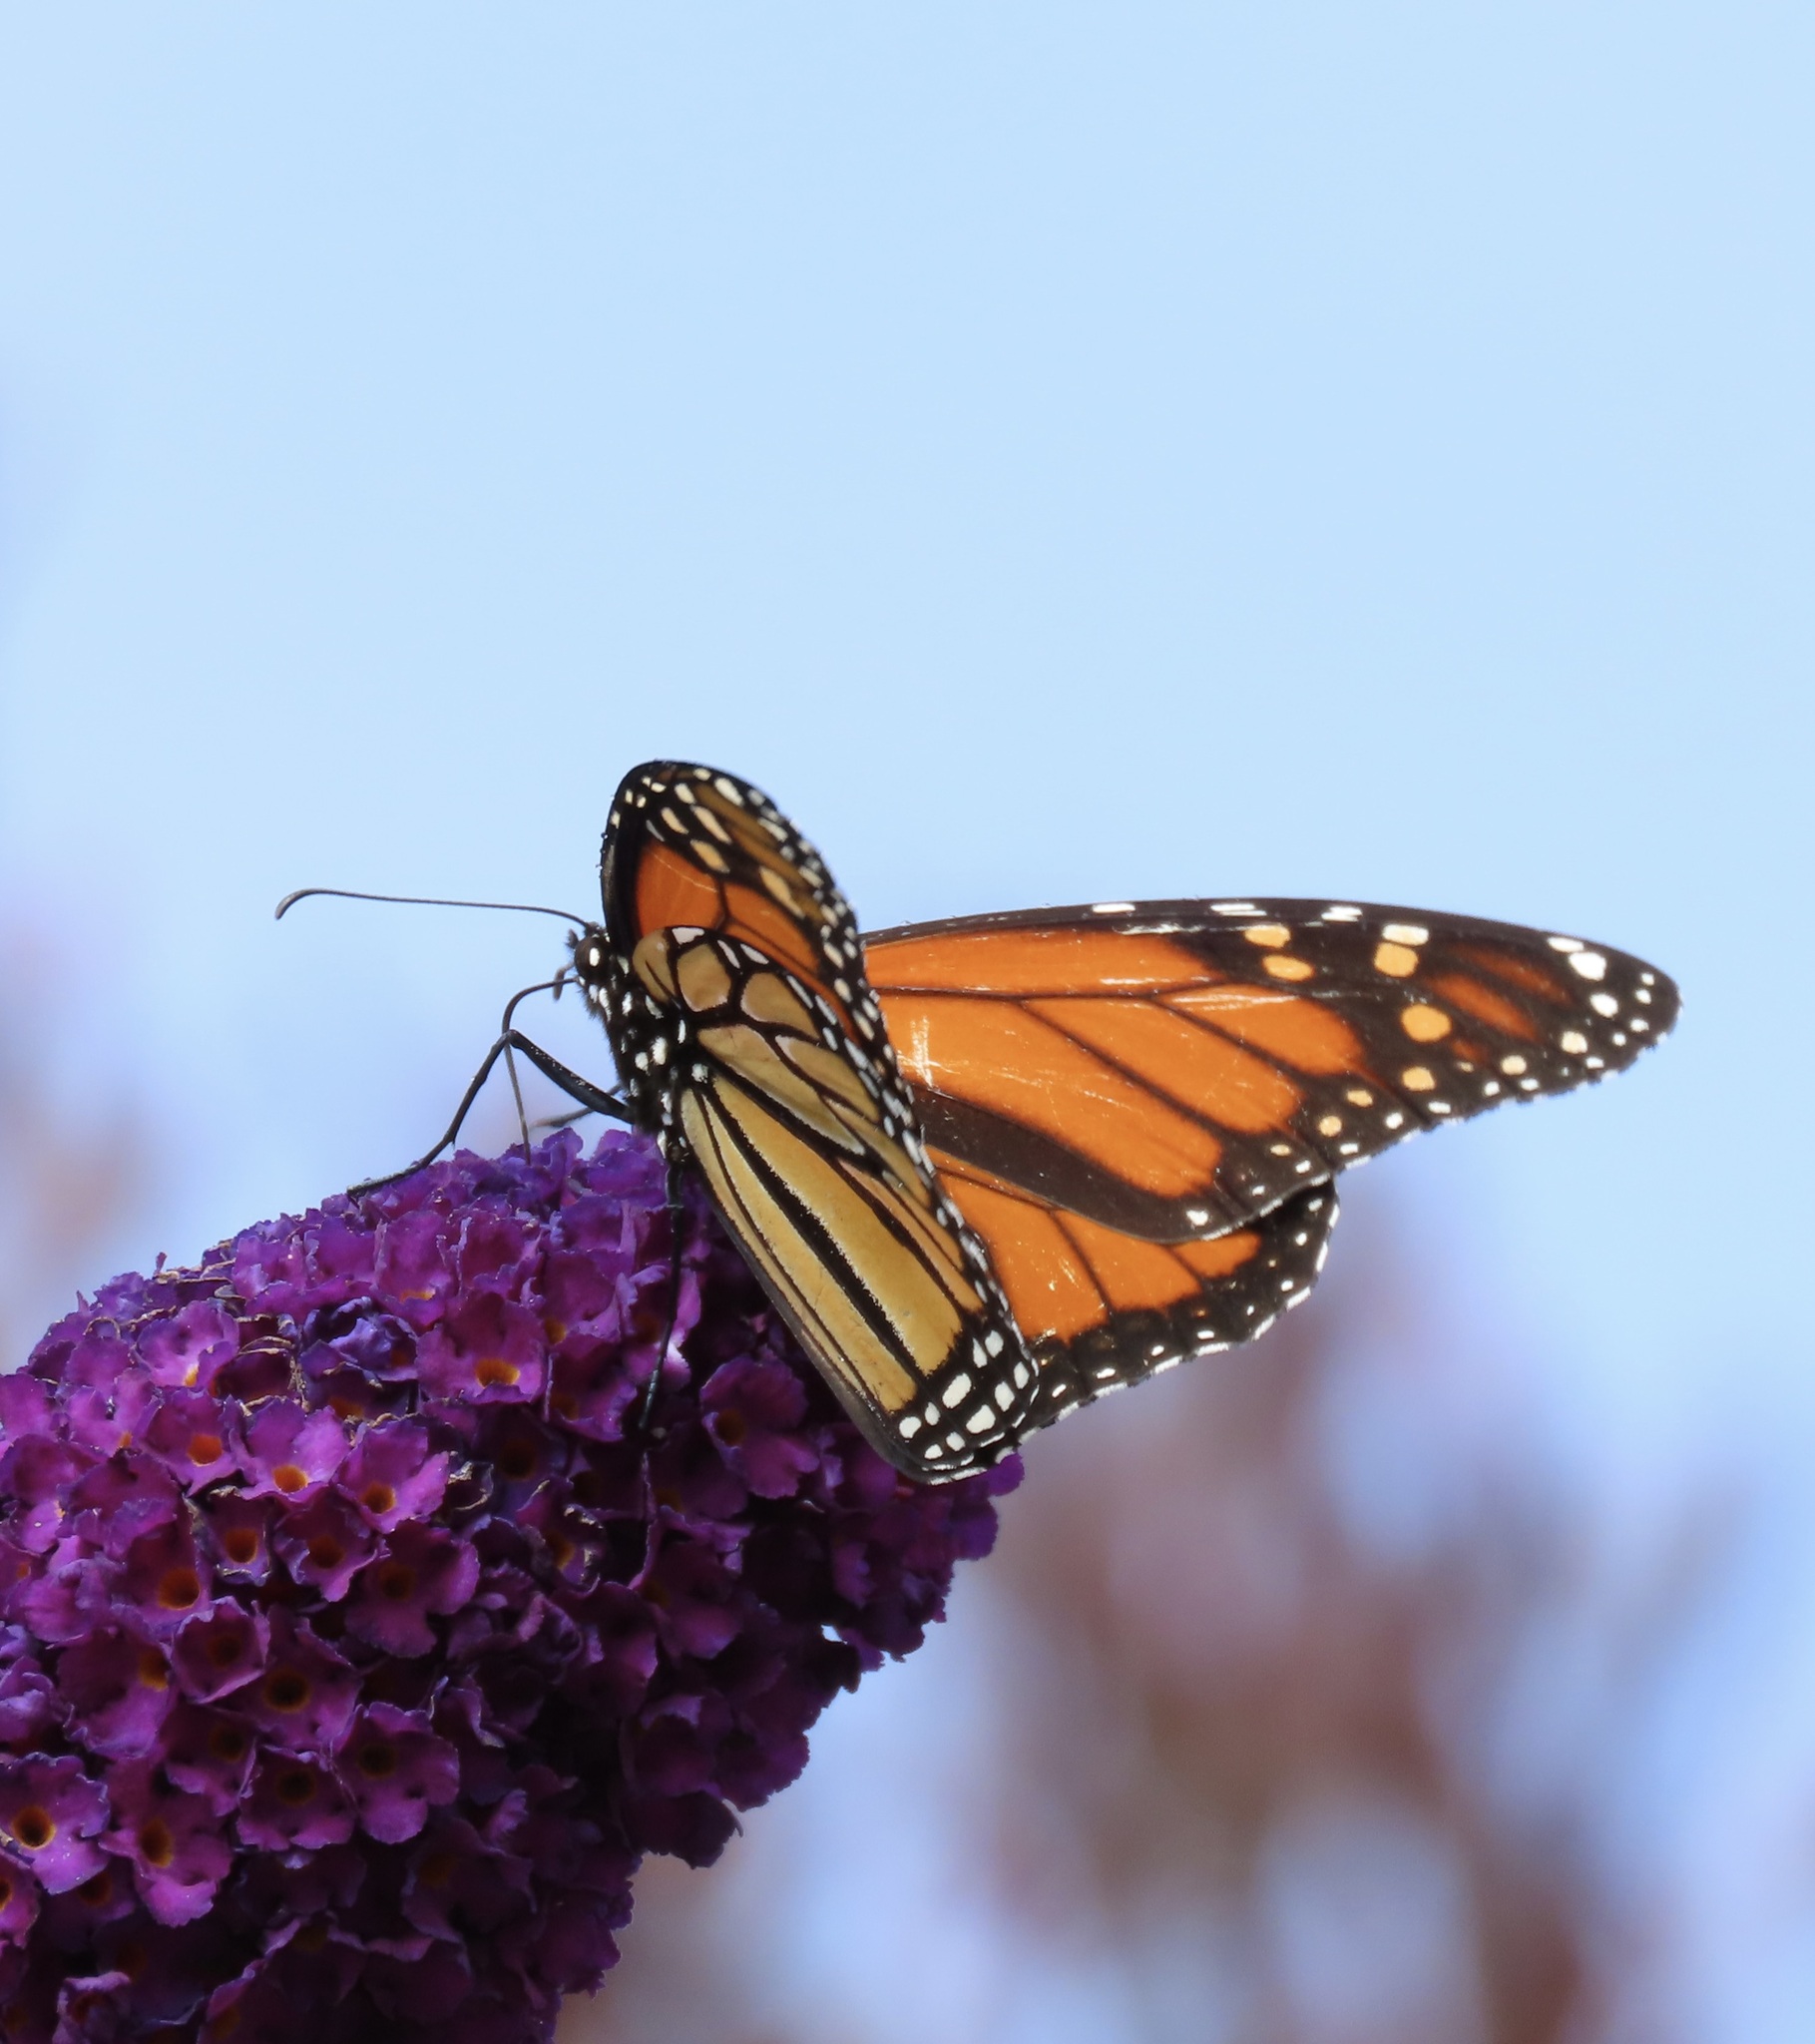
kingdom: Animalia
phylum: Arthropoda
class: Insecta
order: Lepidoptera
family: Nymphalidae
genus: Danaus
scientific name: Danaus plexippus
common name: Monarch
